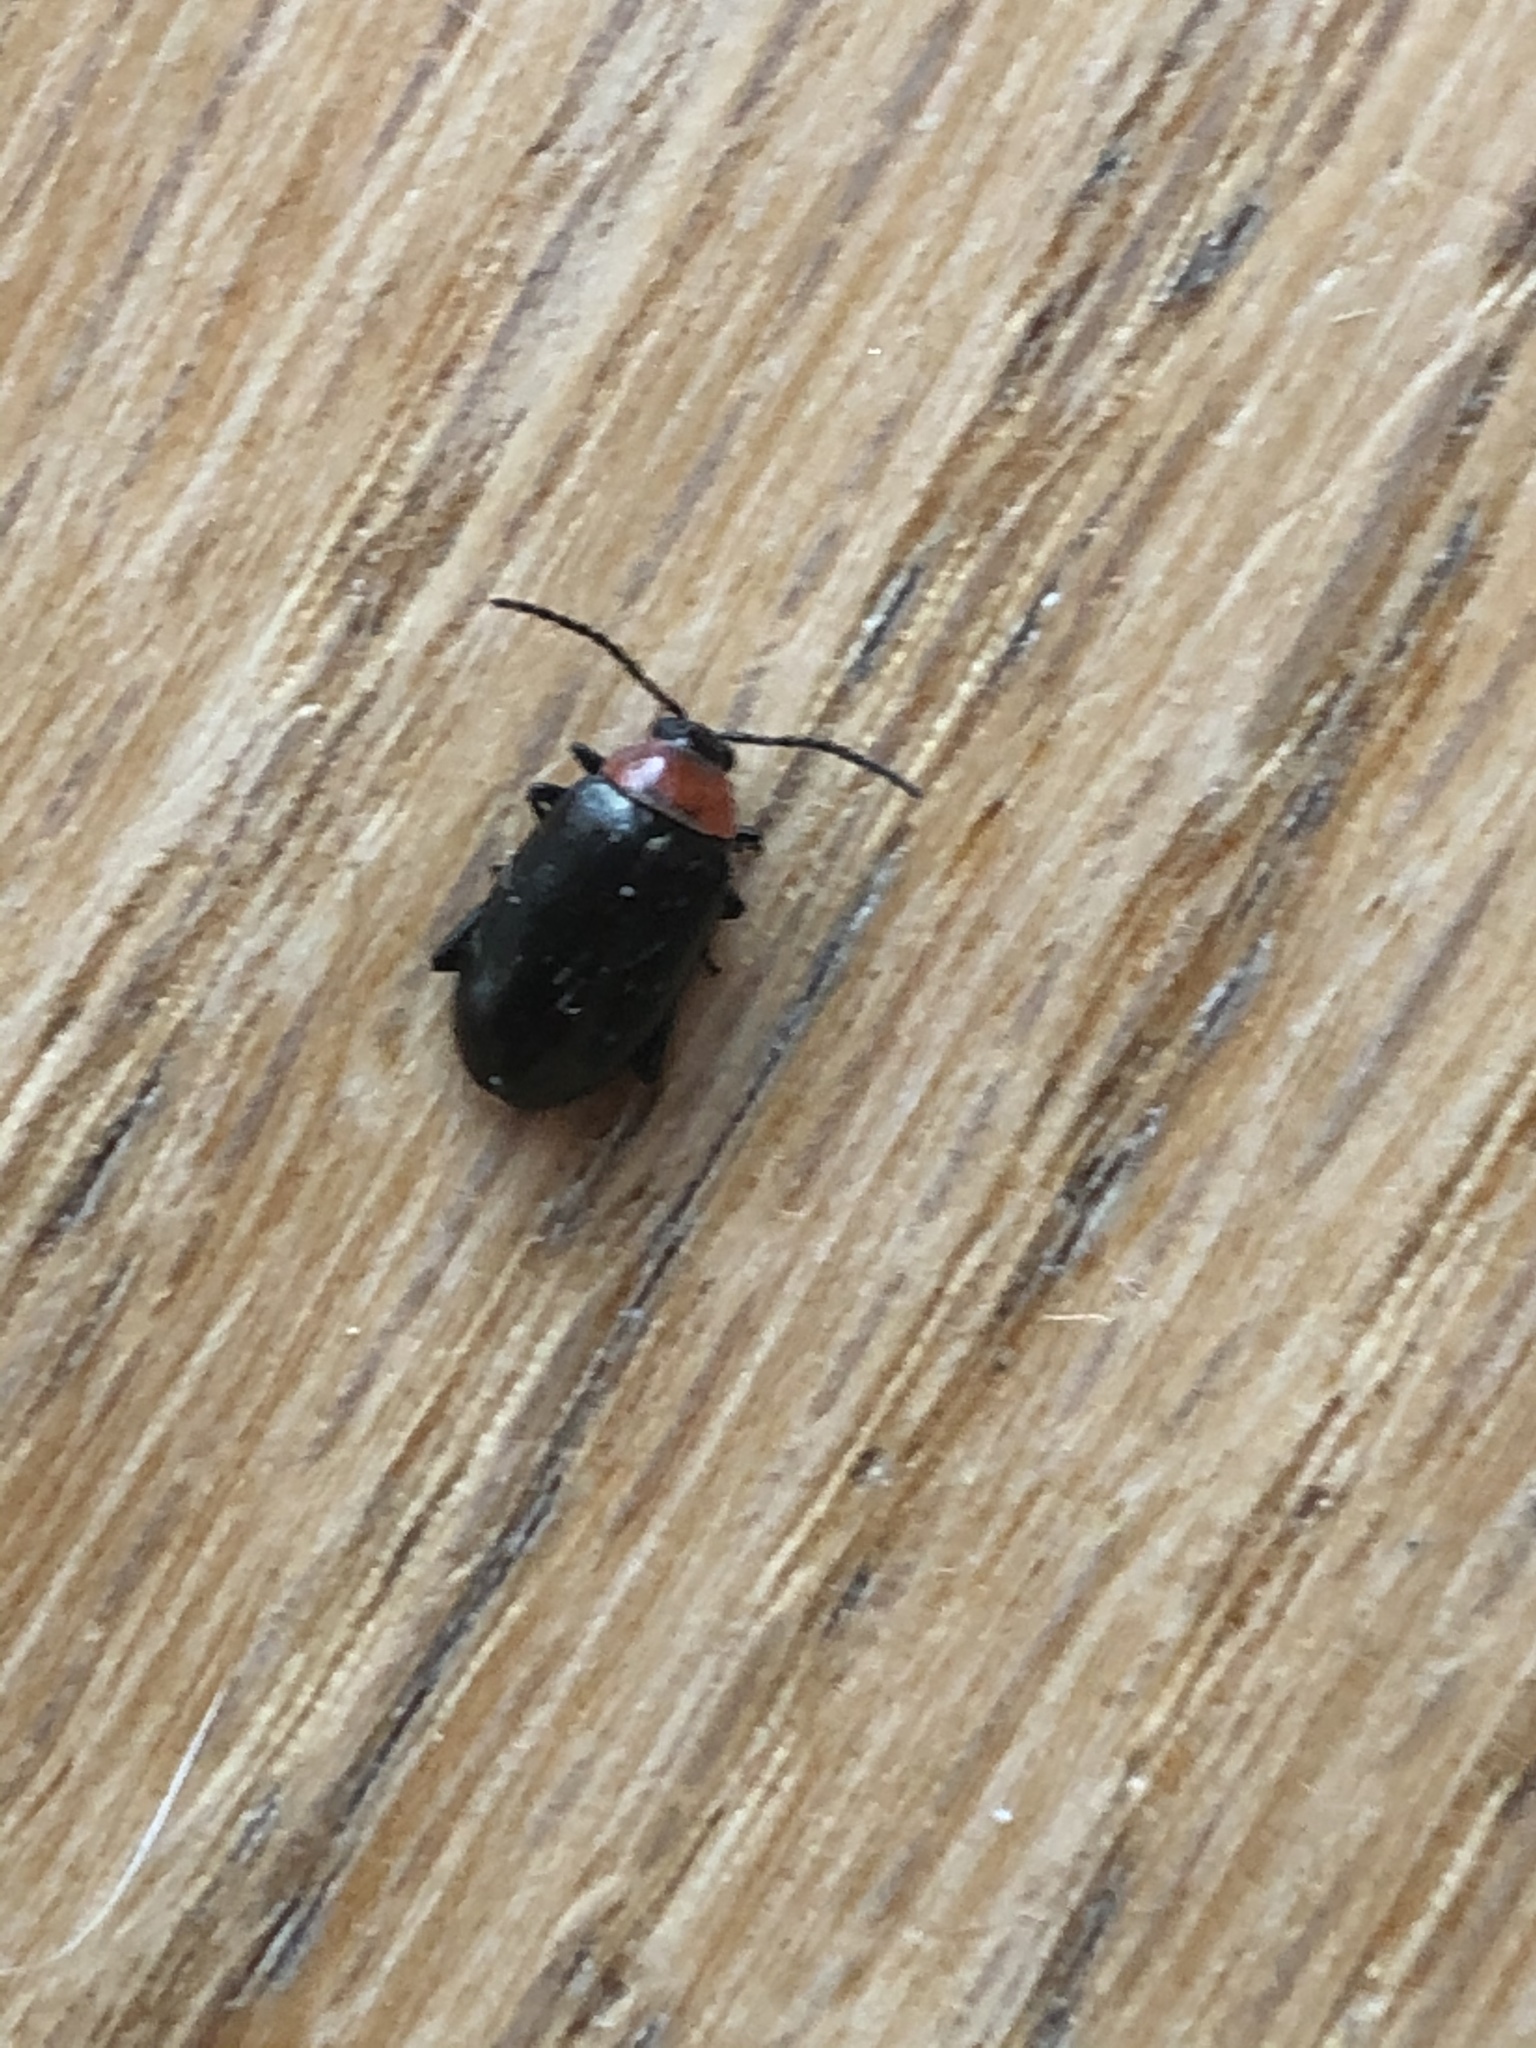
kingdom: Animalia
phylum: Arthropoda
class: Insecta
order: Coleoptera
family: Chrysomelidae
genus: Disonycha
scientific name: Disonycha xanthomelas
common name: Spinach flea beetle
